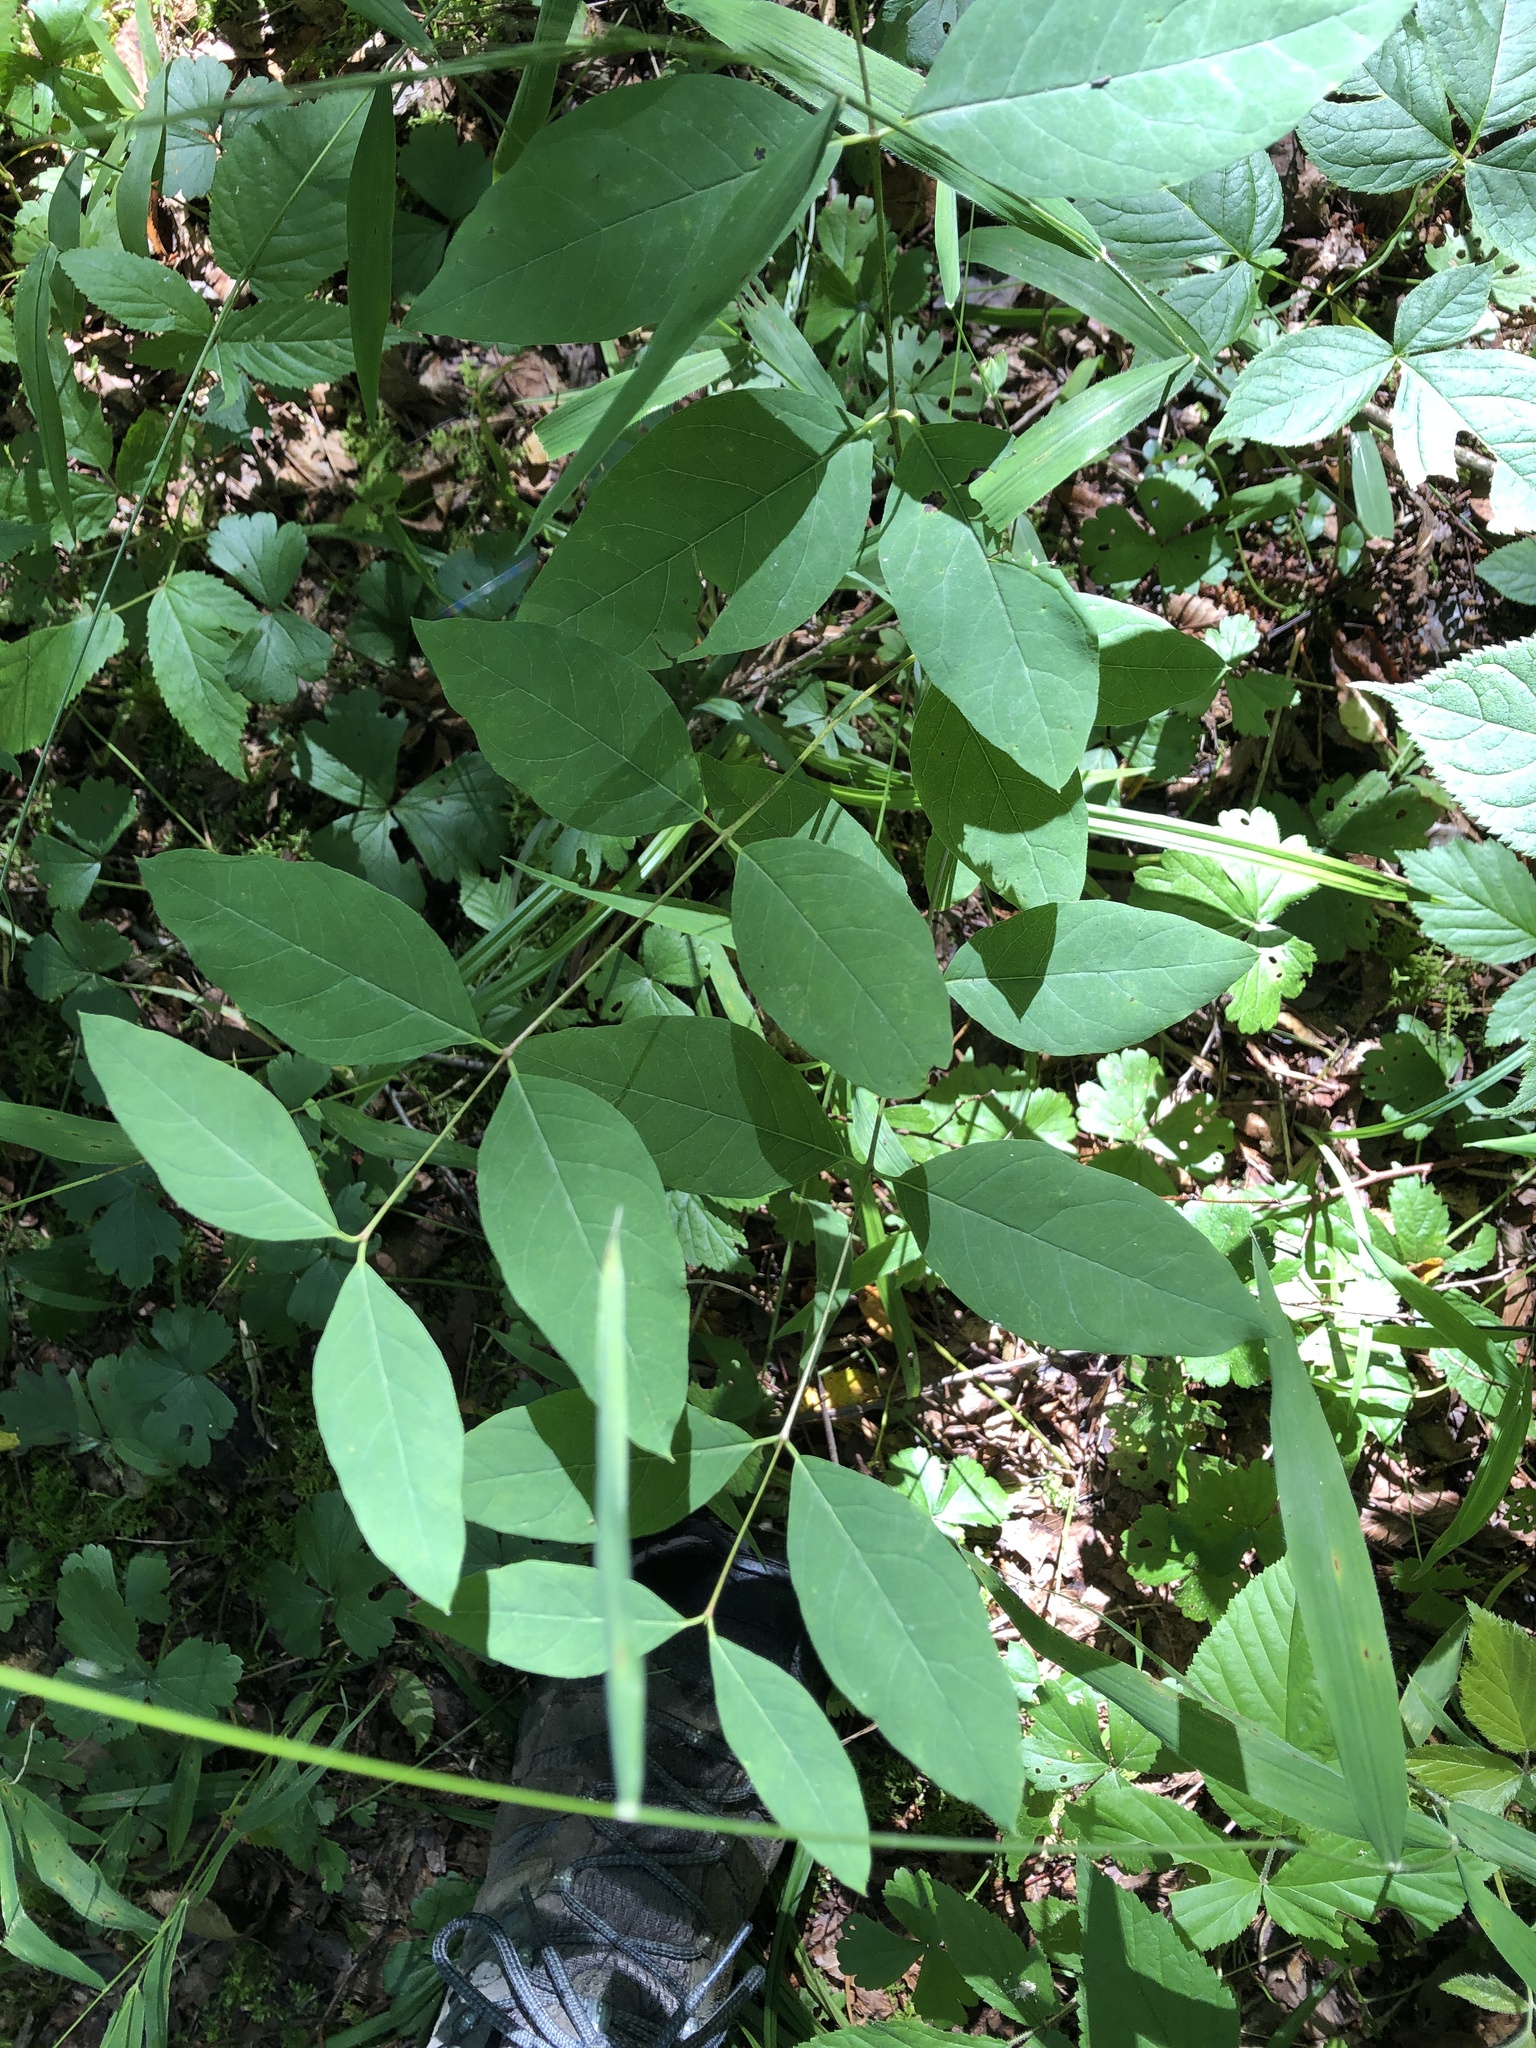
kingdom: Plantae
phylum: Tracheophyta
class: Magnoliopsida
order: Gentianales
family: Apocynaceae
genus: Apocynum
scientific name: Apocynum androsaemifolium
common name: Spreading dogbane
